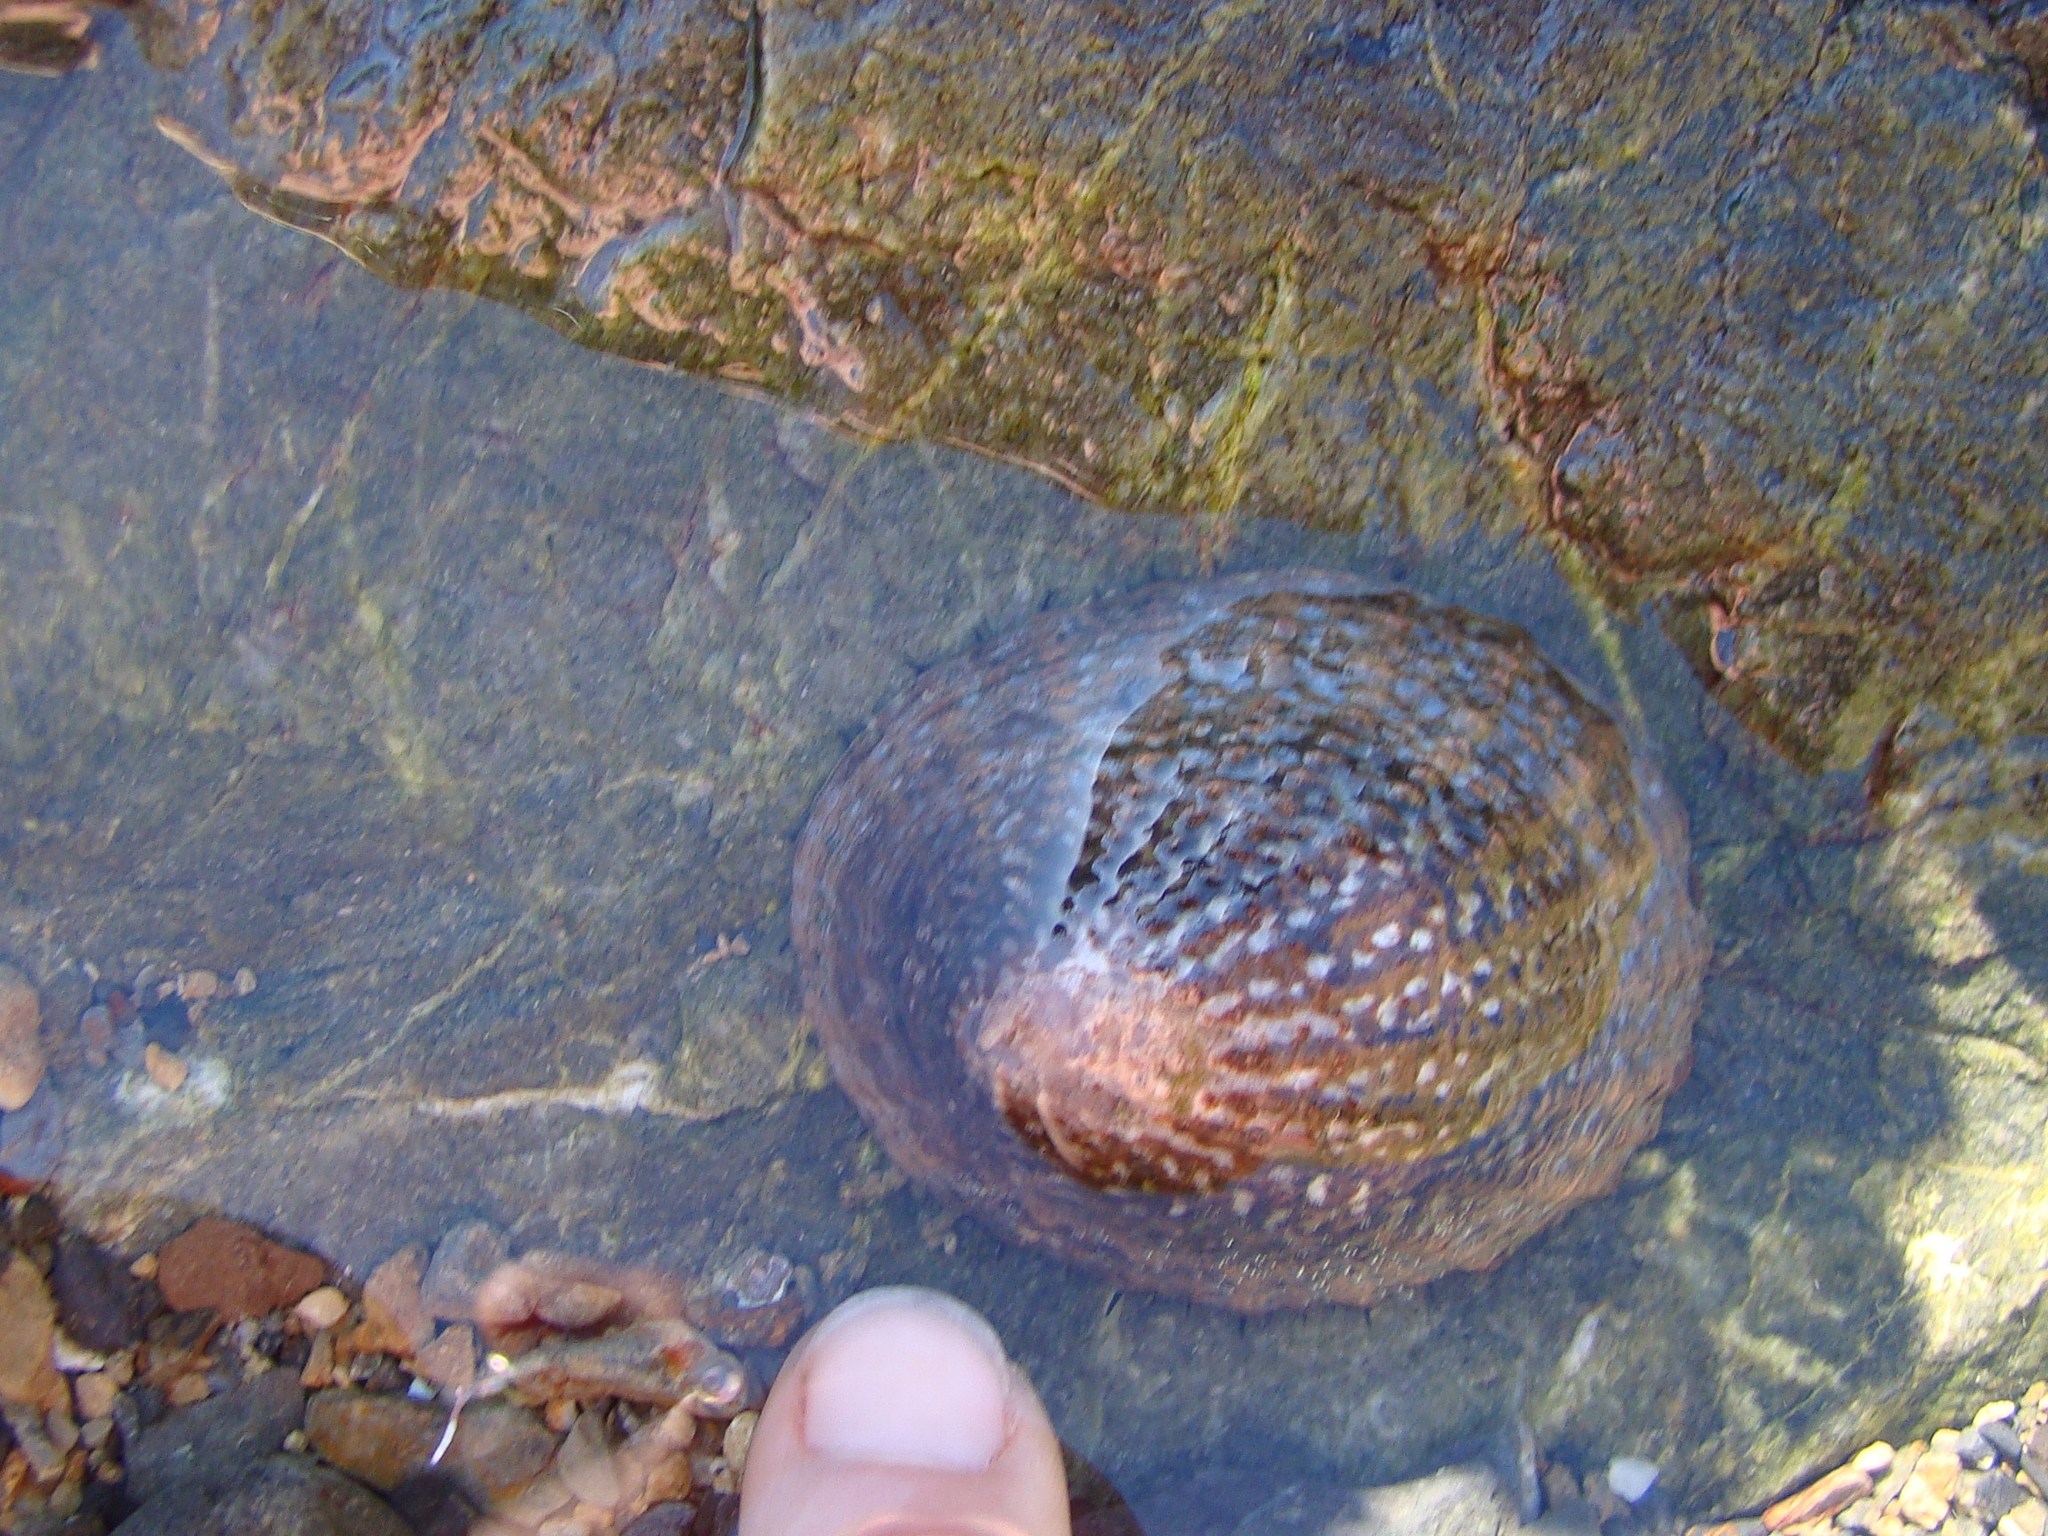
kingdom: Animalia
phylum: Mollusca
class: Gastropoda
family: Nacellidae
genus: Cellana
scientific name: Cellana denticulata
